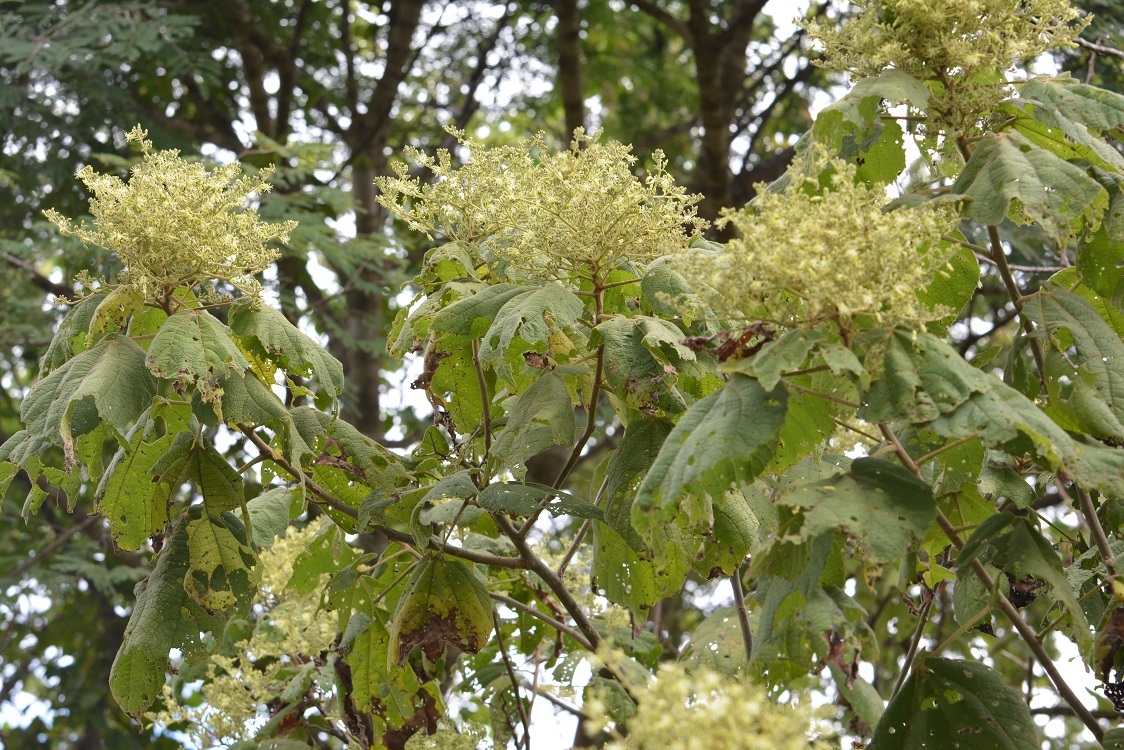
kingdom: Plantae
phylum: Tracheophyta
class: Magnoliopsida
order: Malvales
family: Malvaceae
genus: Heliocarpus
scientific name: Heliocarpus americanus
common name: White moho
